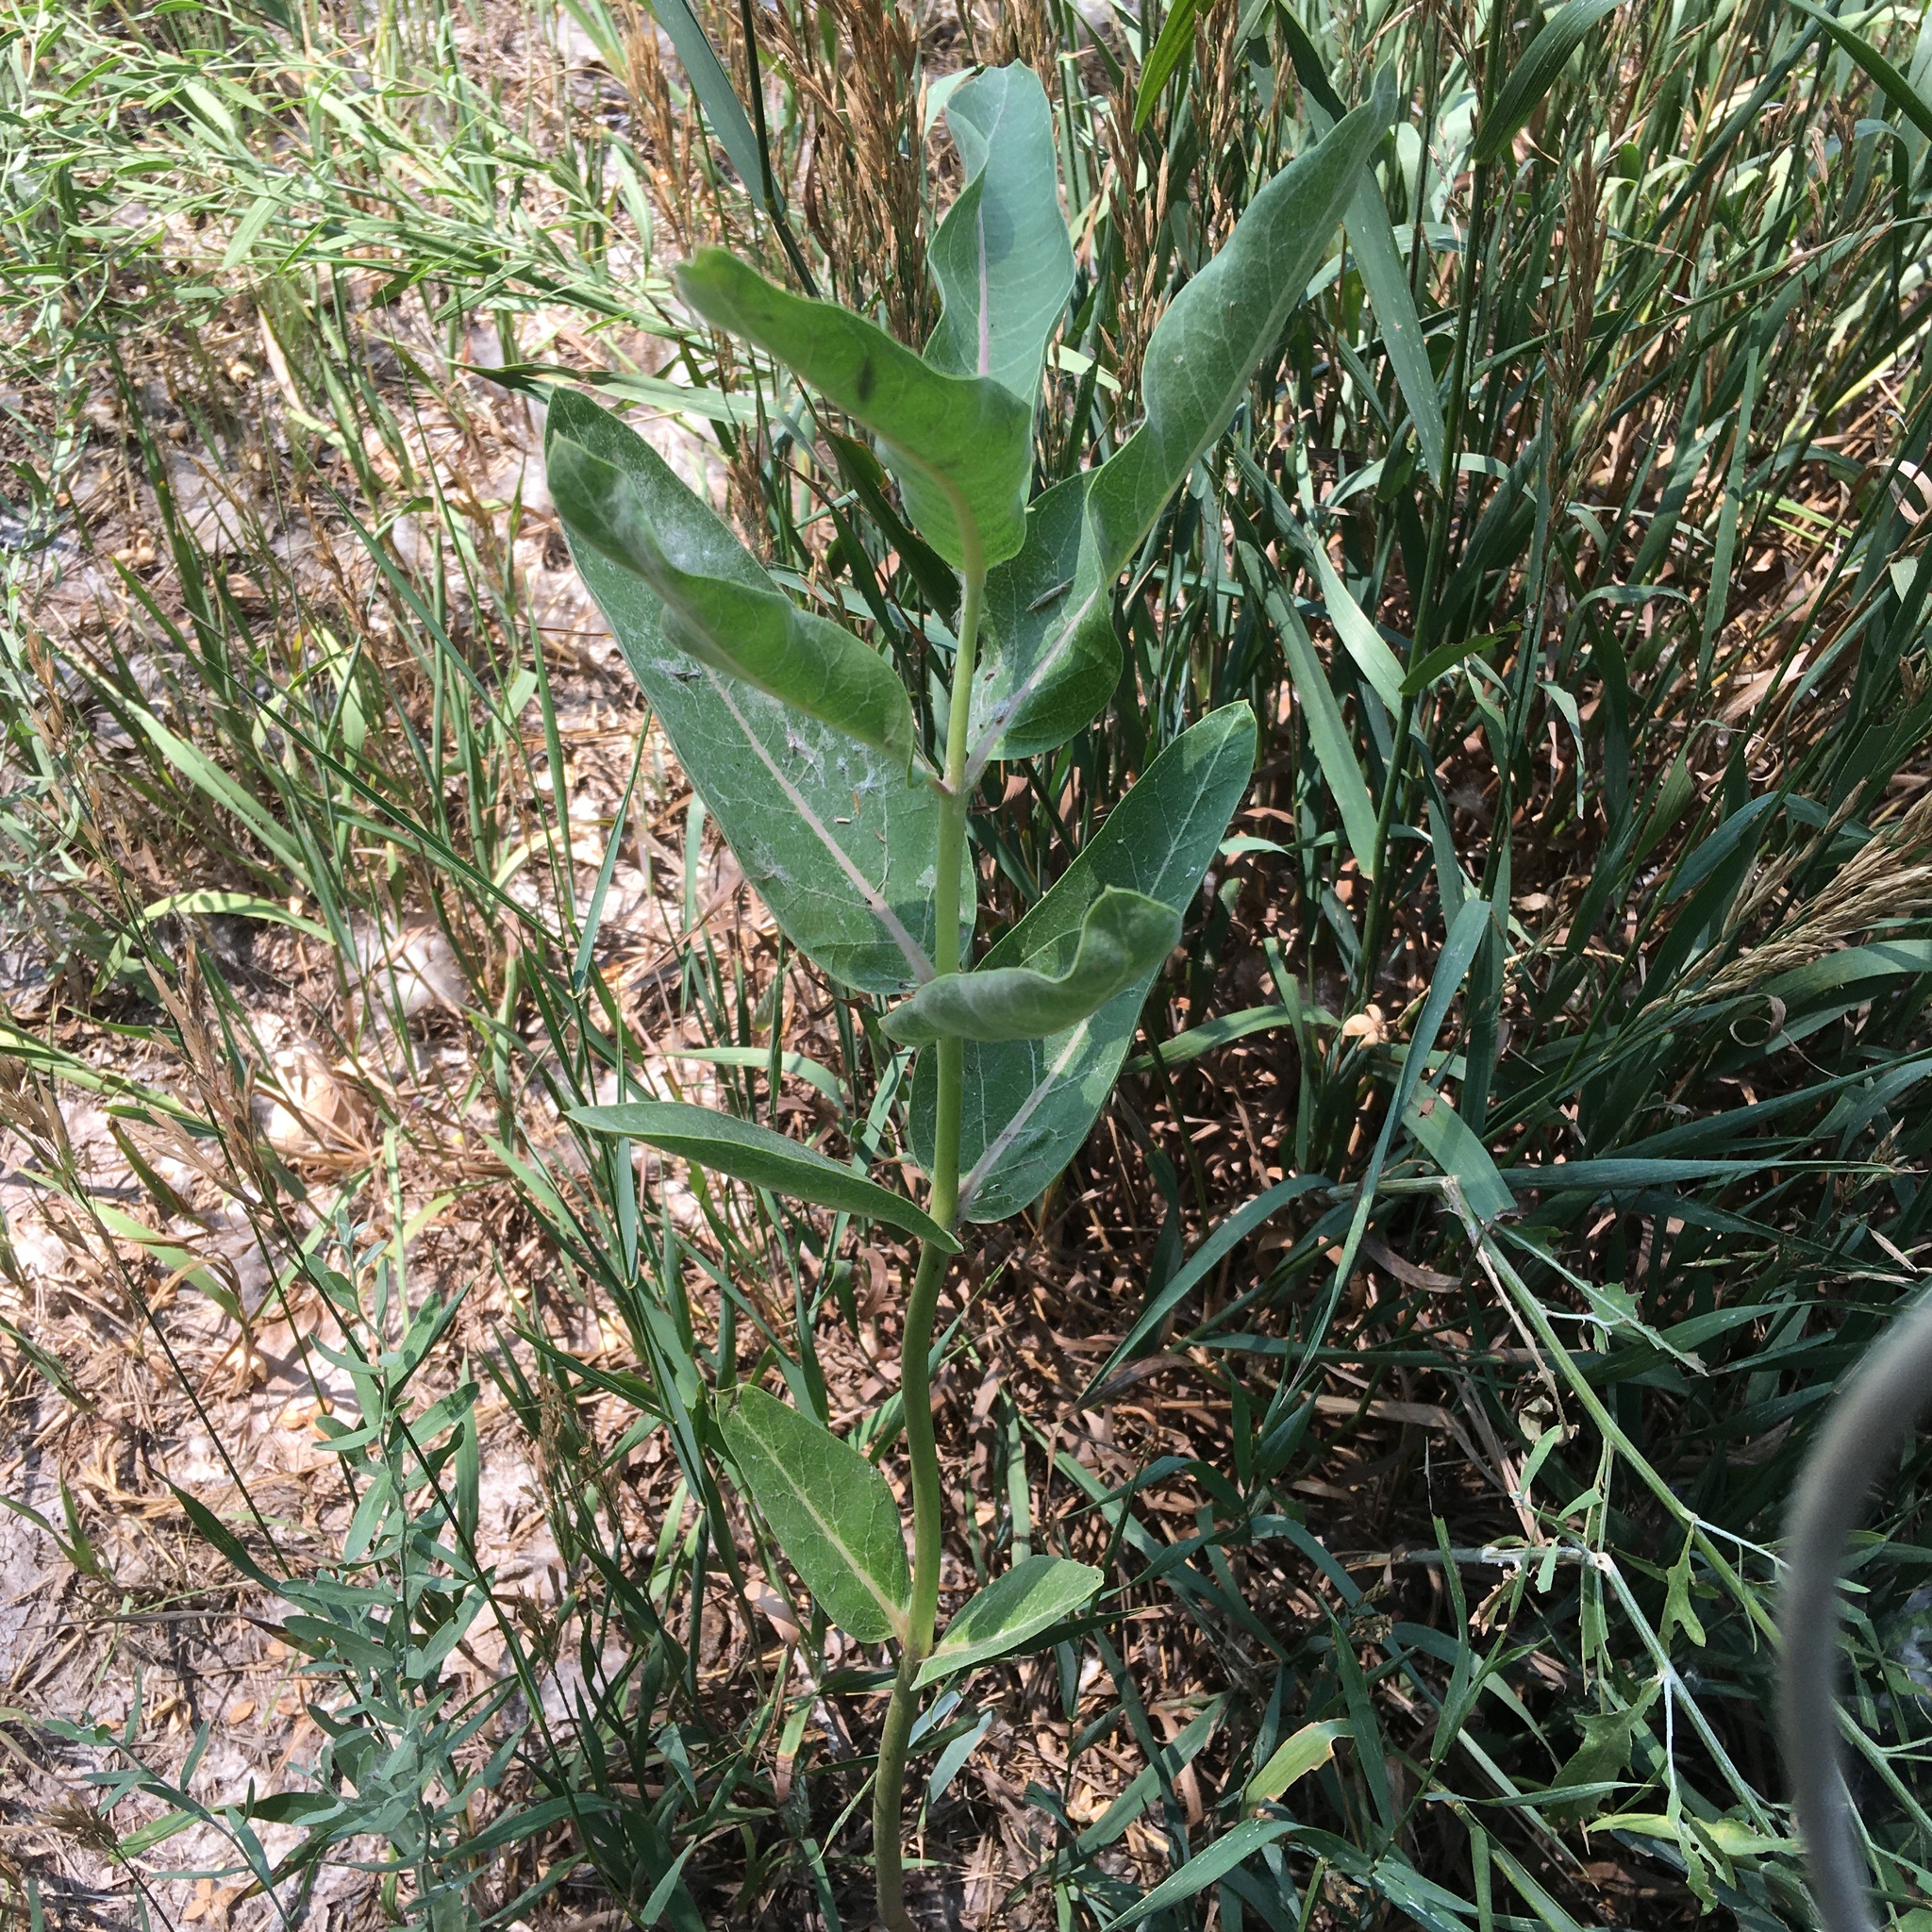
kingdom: Plantae
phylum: Tracheophyta
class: Magnoliopsida
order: Gentianales
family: Apocynaceae
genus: Asclepias
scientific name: Asclepias speciosa
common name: Showy milkweed
